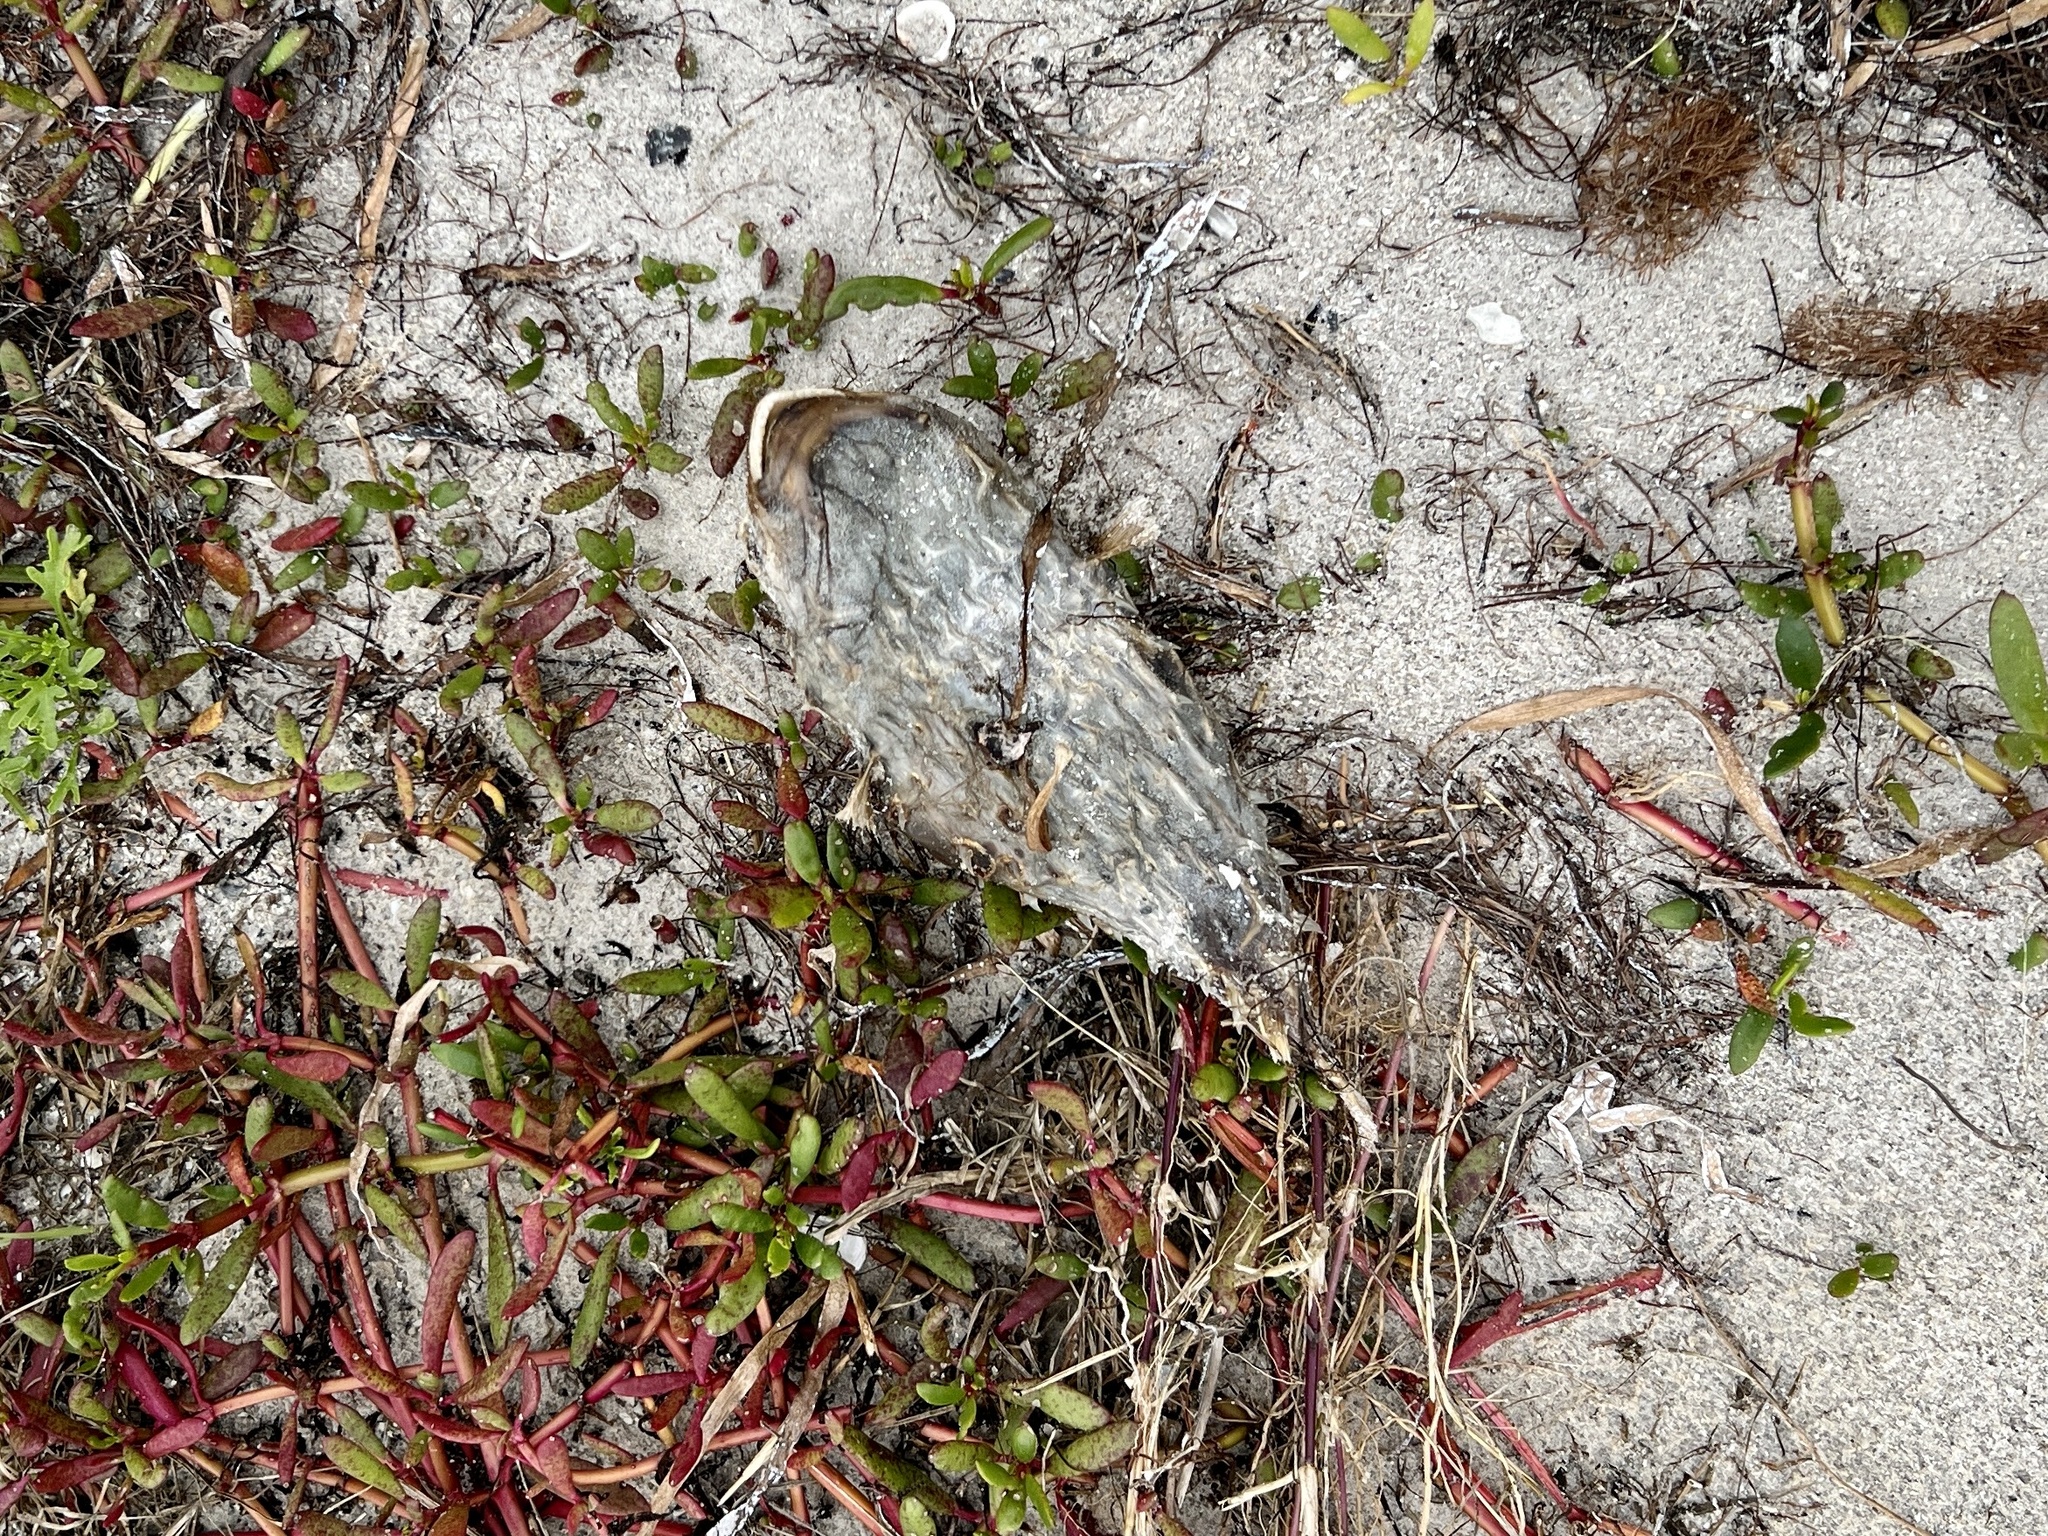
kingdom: Animalia
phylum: Chordata
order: Tetraodontiformes
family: Diodontidae
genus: Chilomycterus
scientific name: Chilomycterus schoepfii
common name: Striped burrfish
